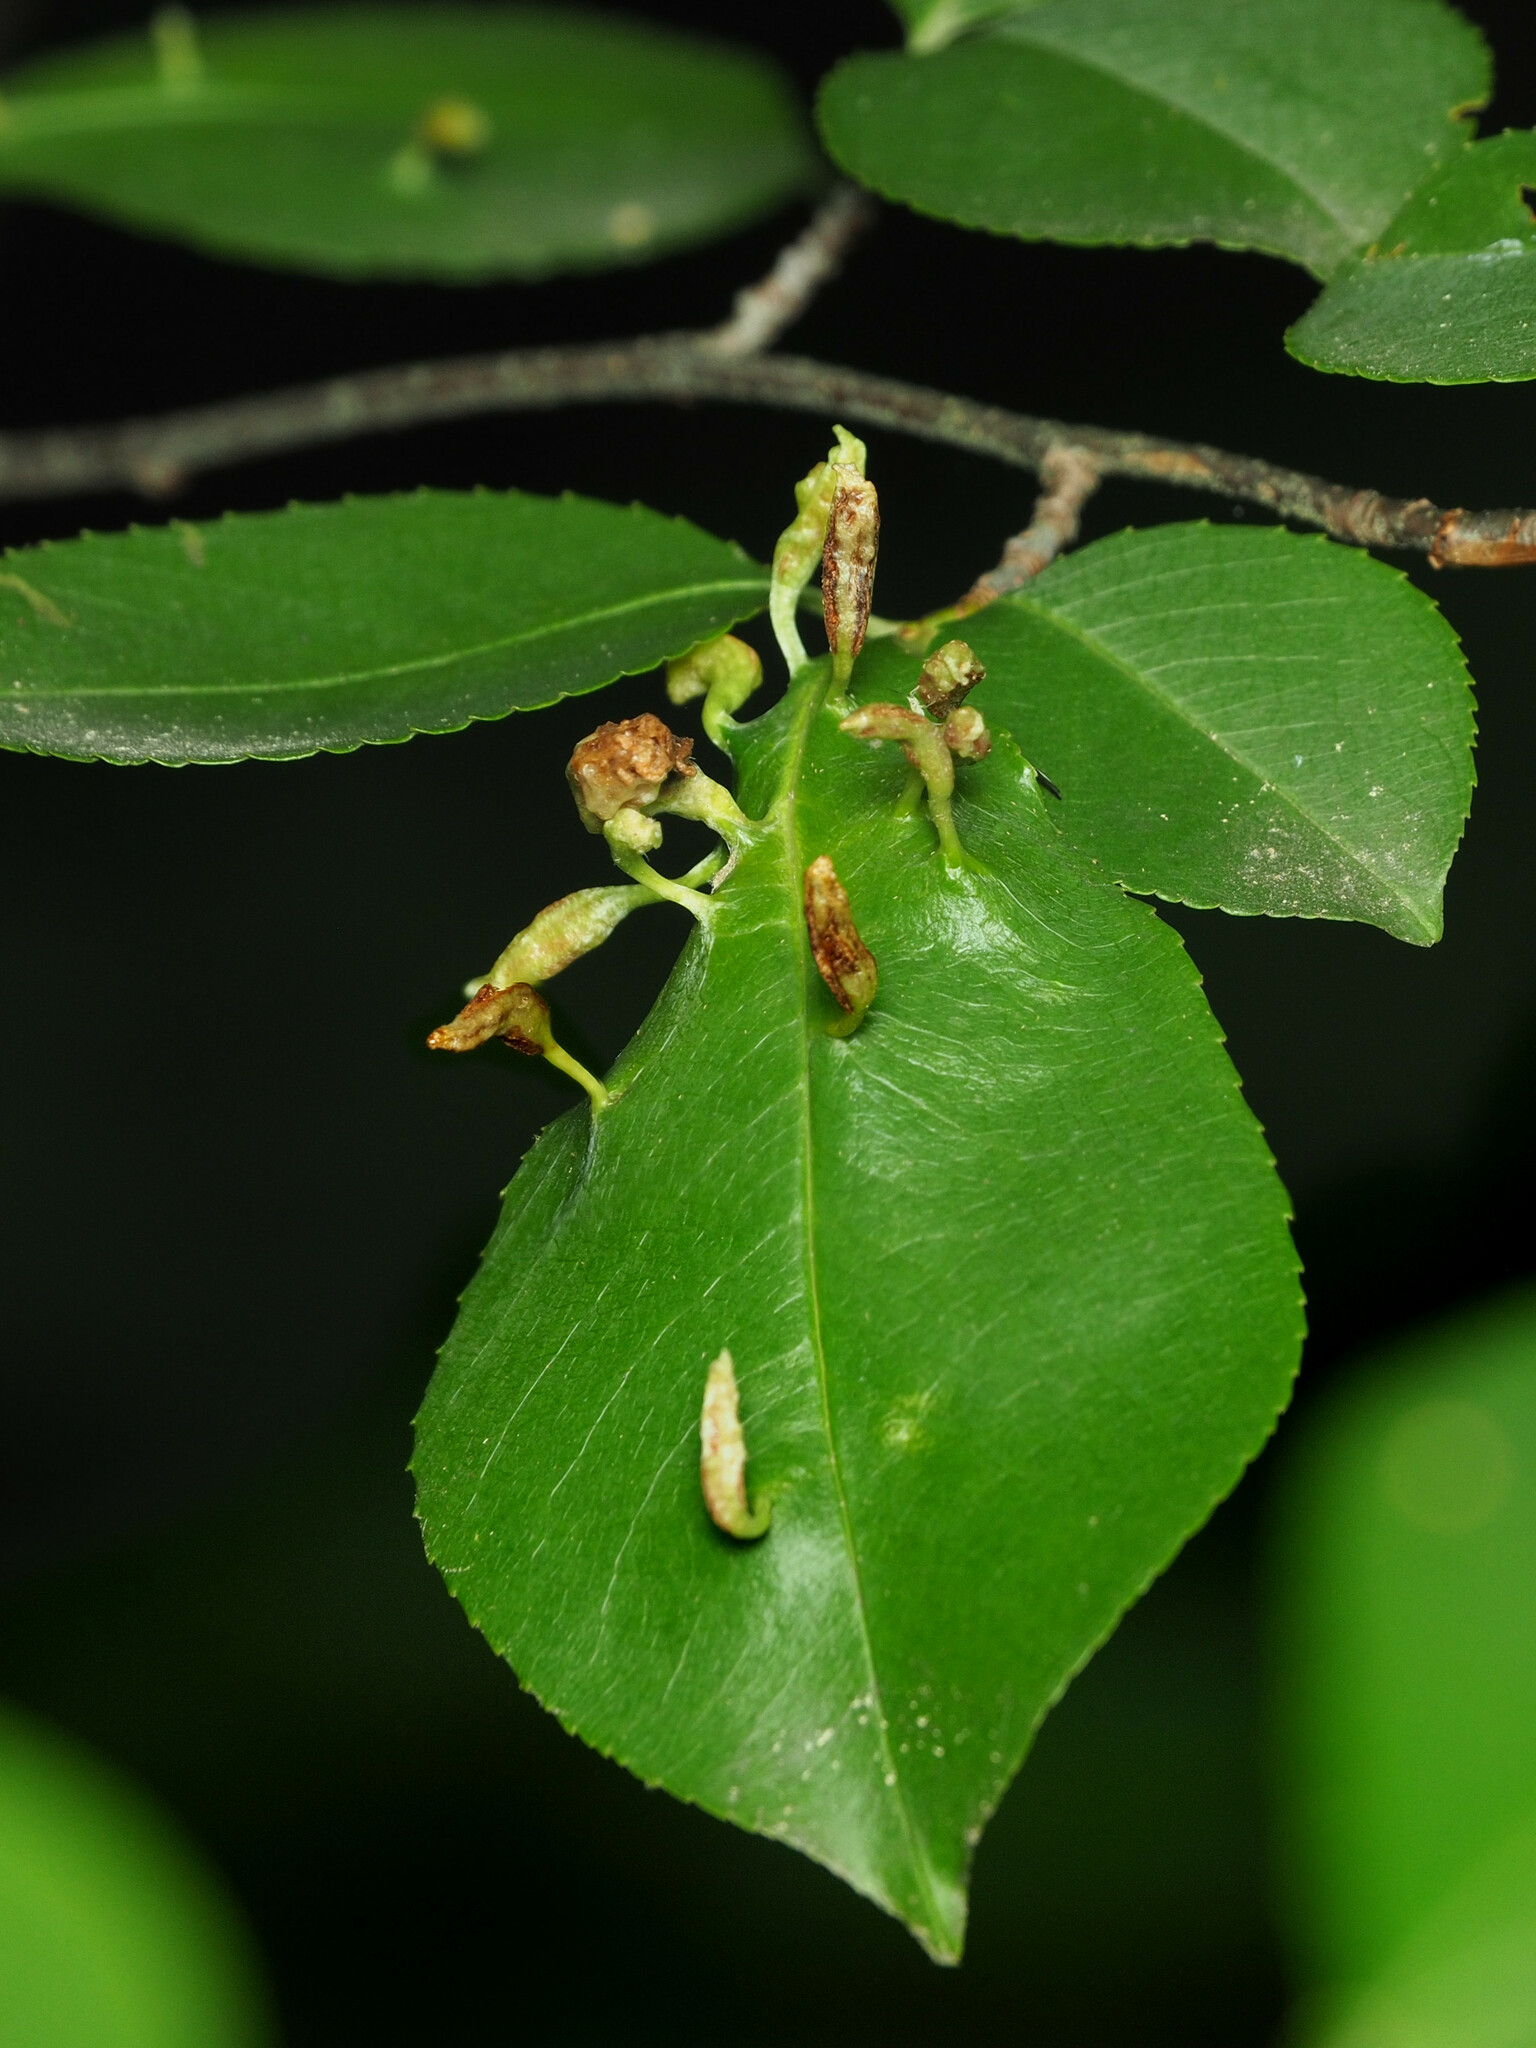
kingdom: Animalia
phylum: Arthropoda
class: Arachnida
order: Trombidiformes
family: Eriophyidae
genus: Eriophyes
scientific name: Eriophyes
